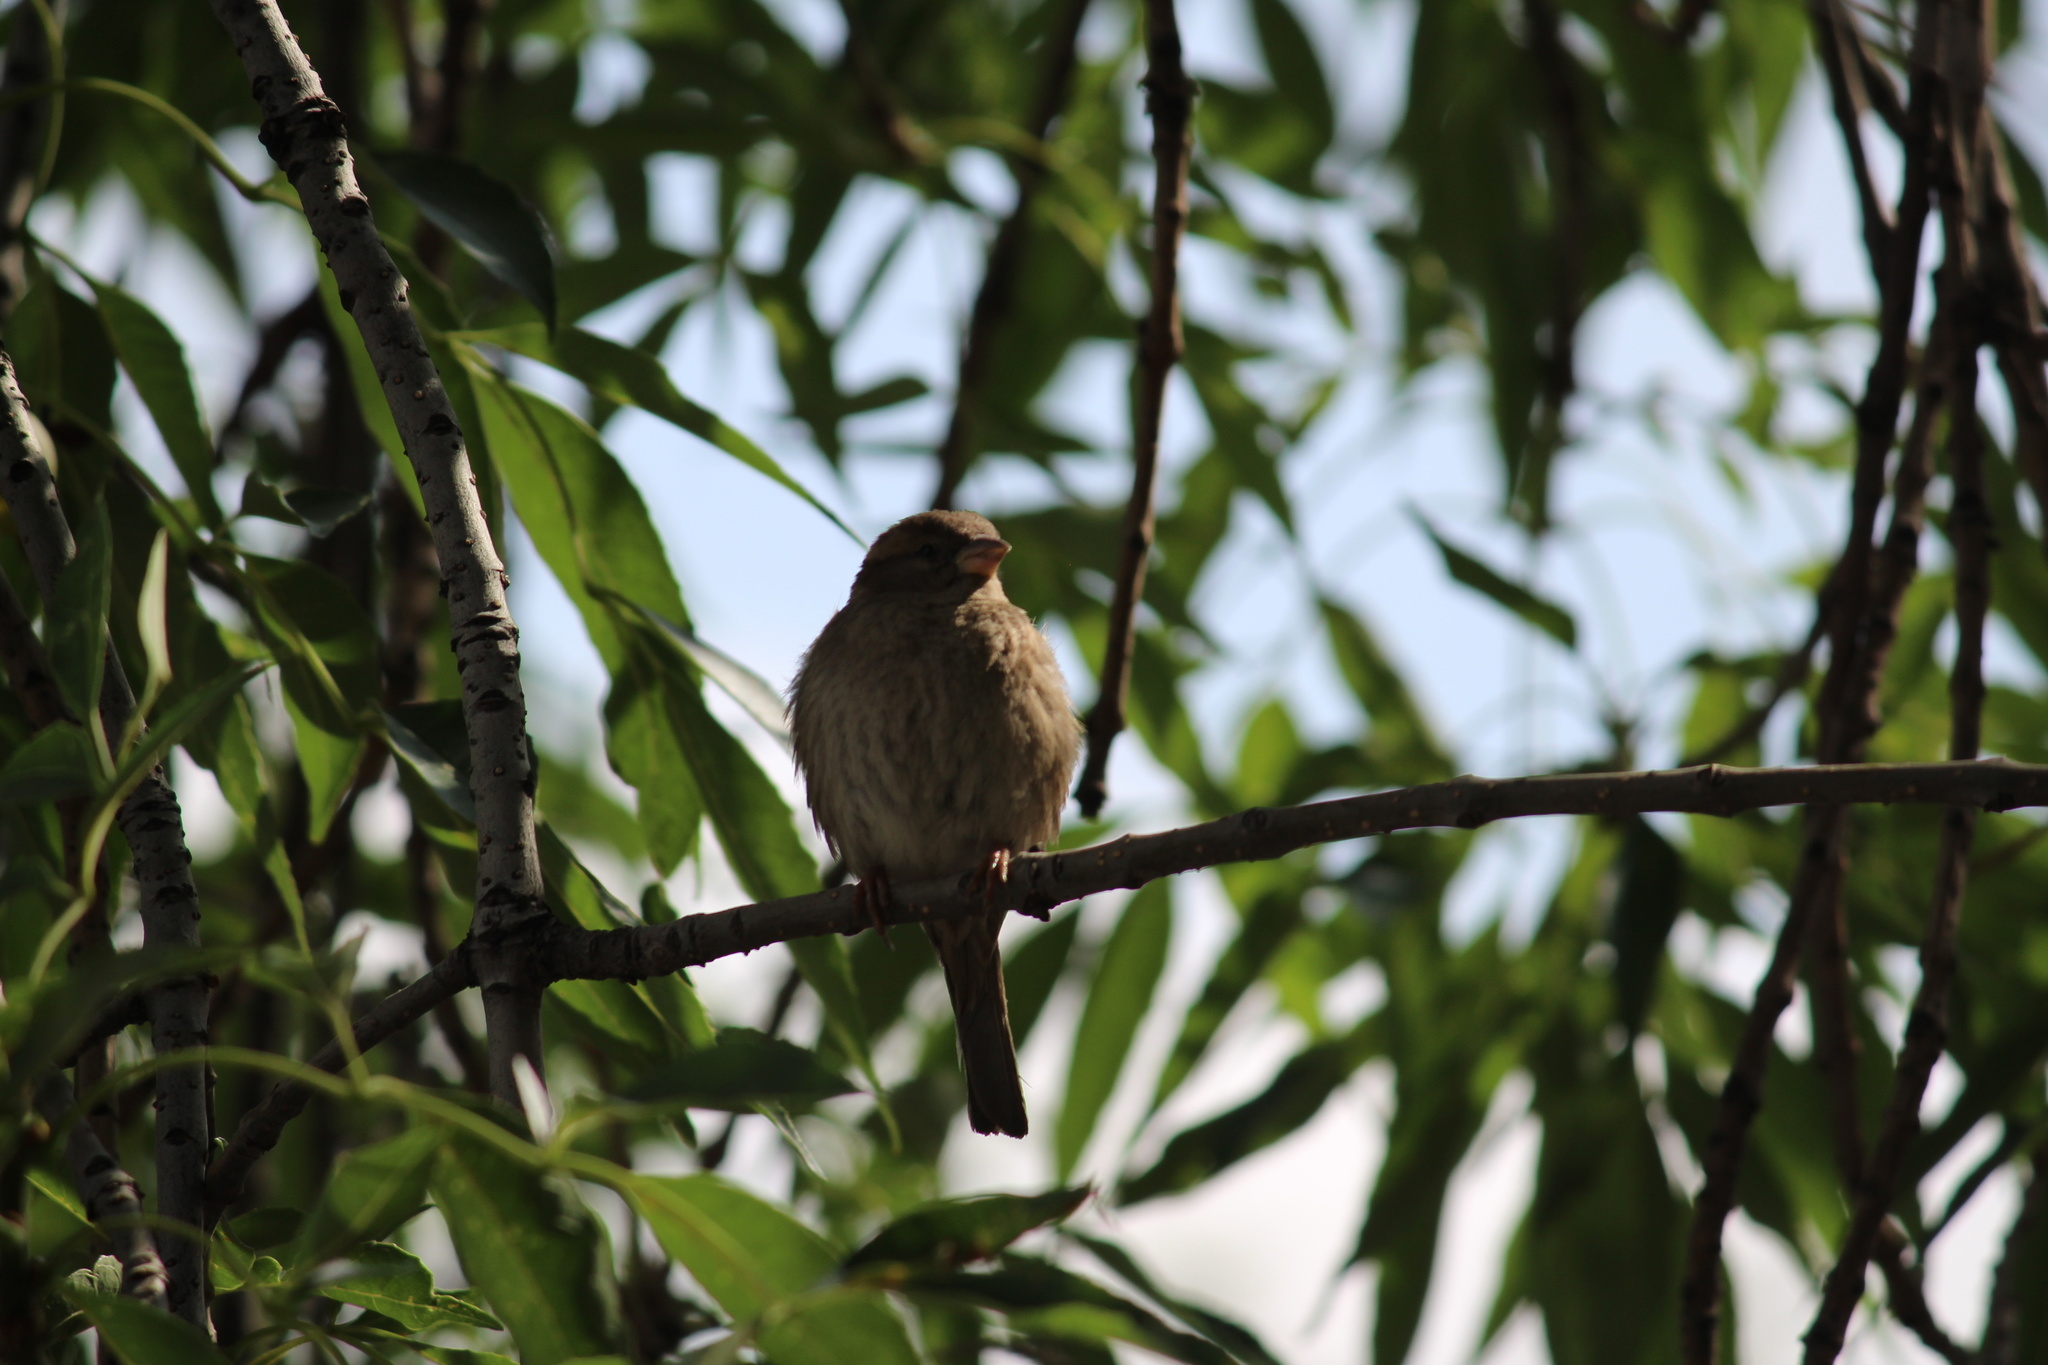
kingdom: Animalia
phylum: Chordata
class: Aves
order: Passeriformes
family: Passeridae
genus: Passer
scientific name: Passer domesticus
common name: House sparrow
